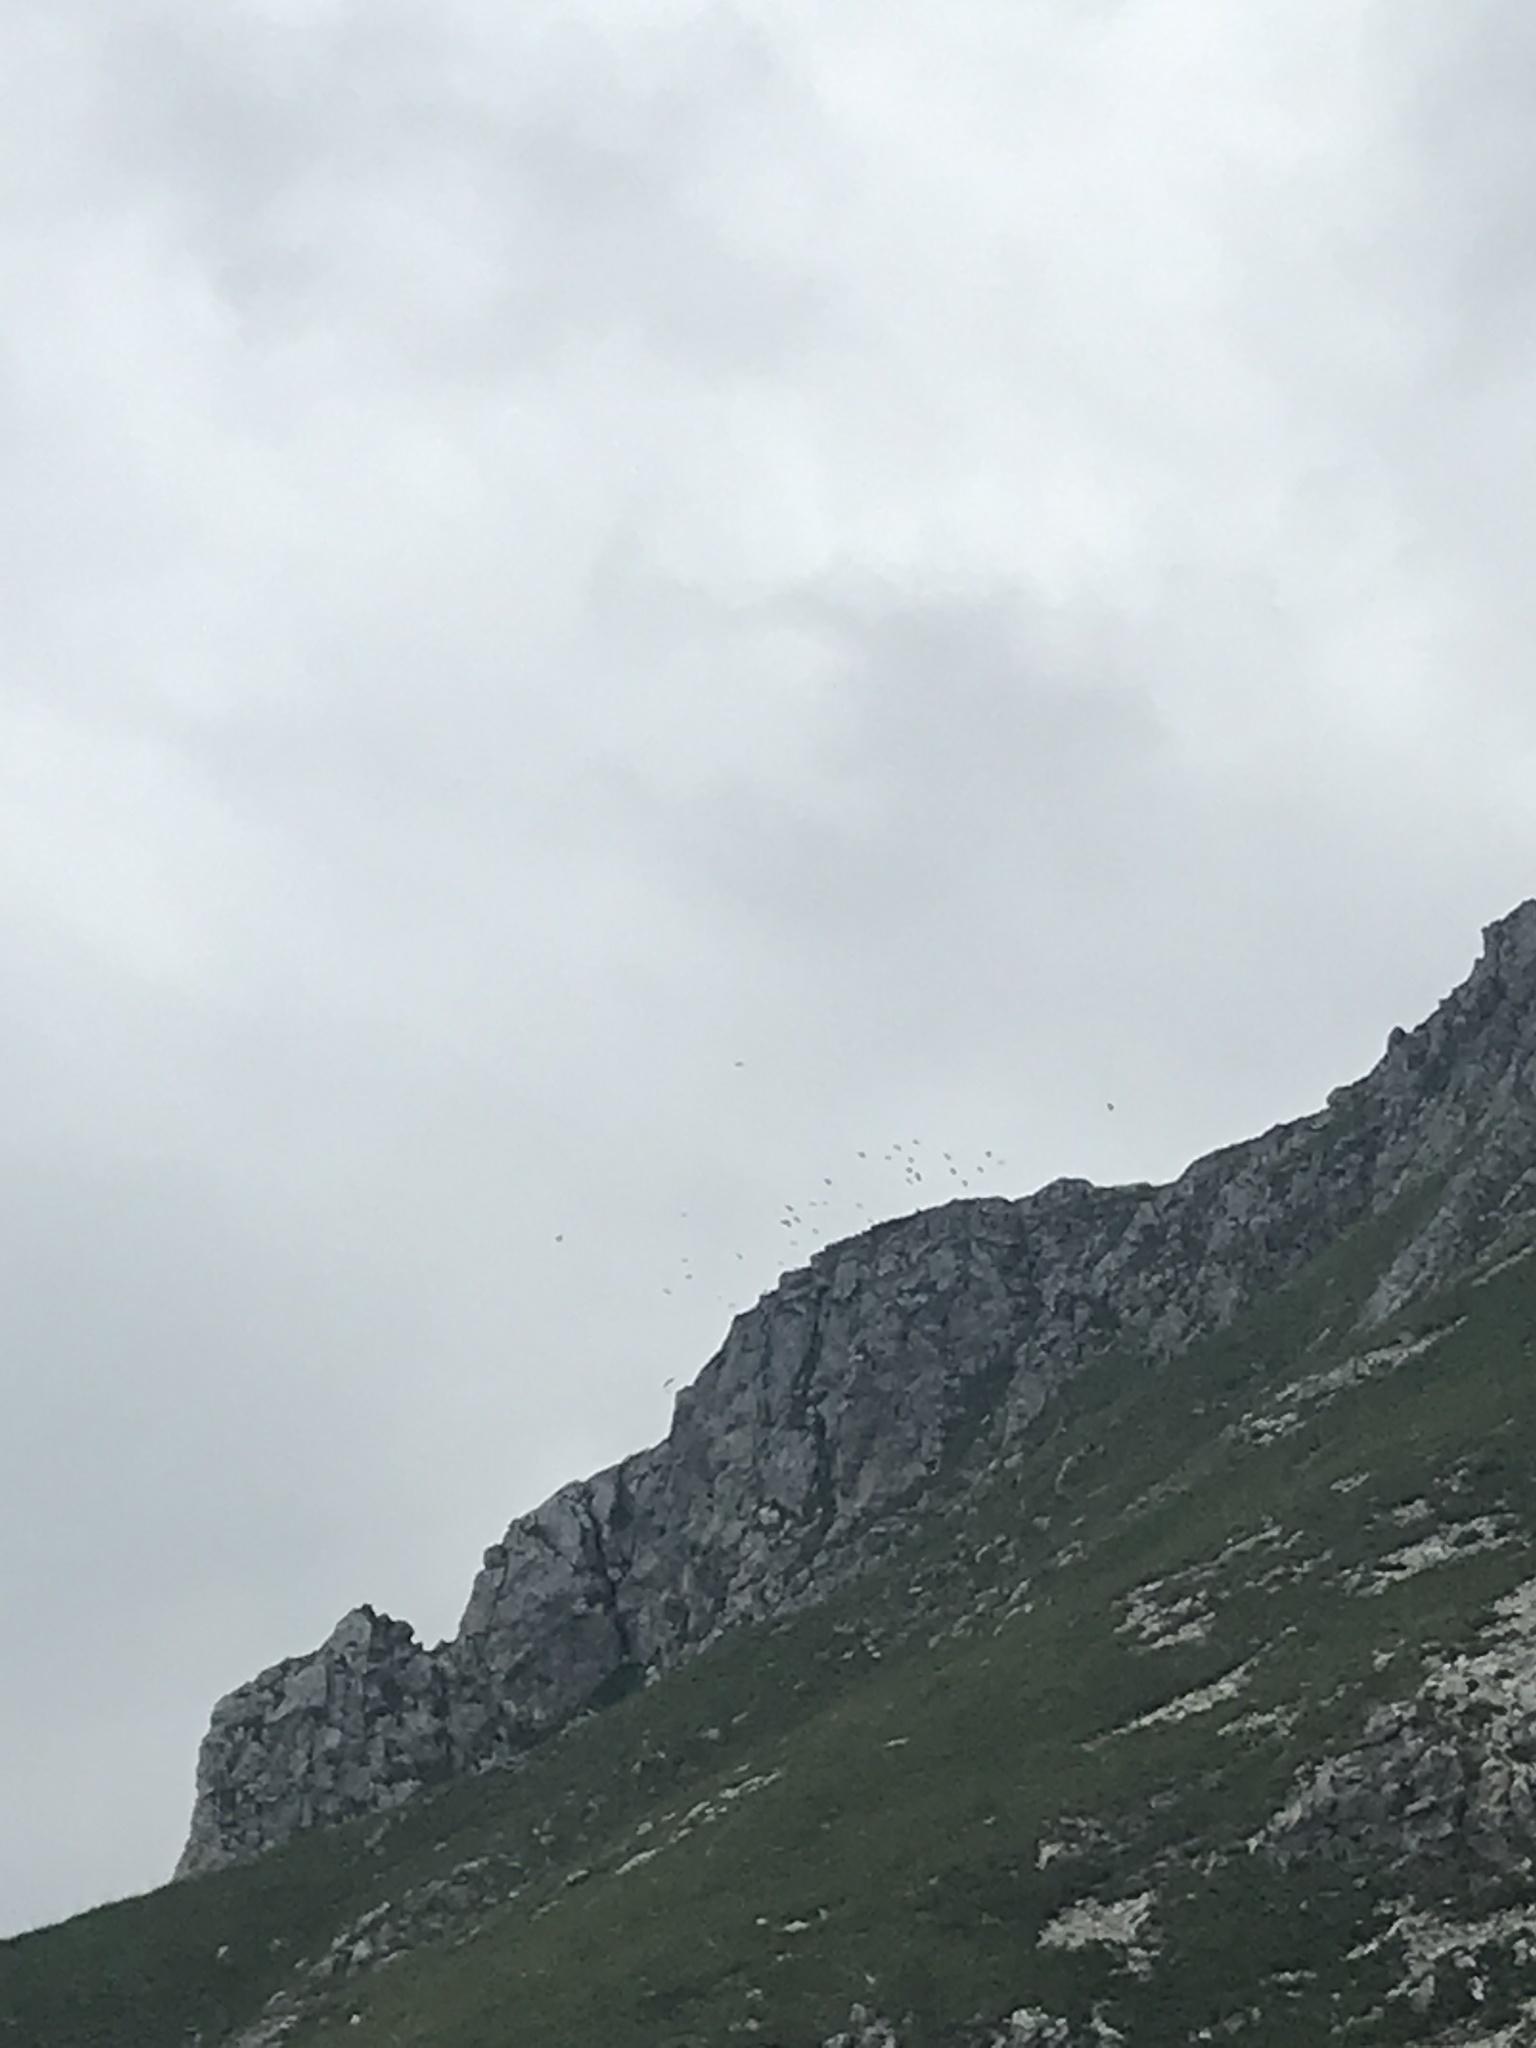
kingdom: Animalia
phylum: Chordata
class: Aves
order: Passeriformes
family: Corvidae
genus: Pyrrhocorax
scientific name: Pyrrhocorax graculus
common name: Alpine chough
